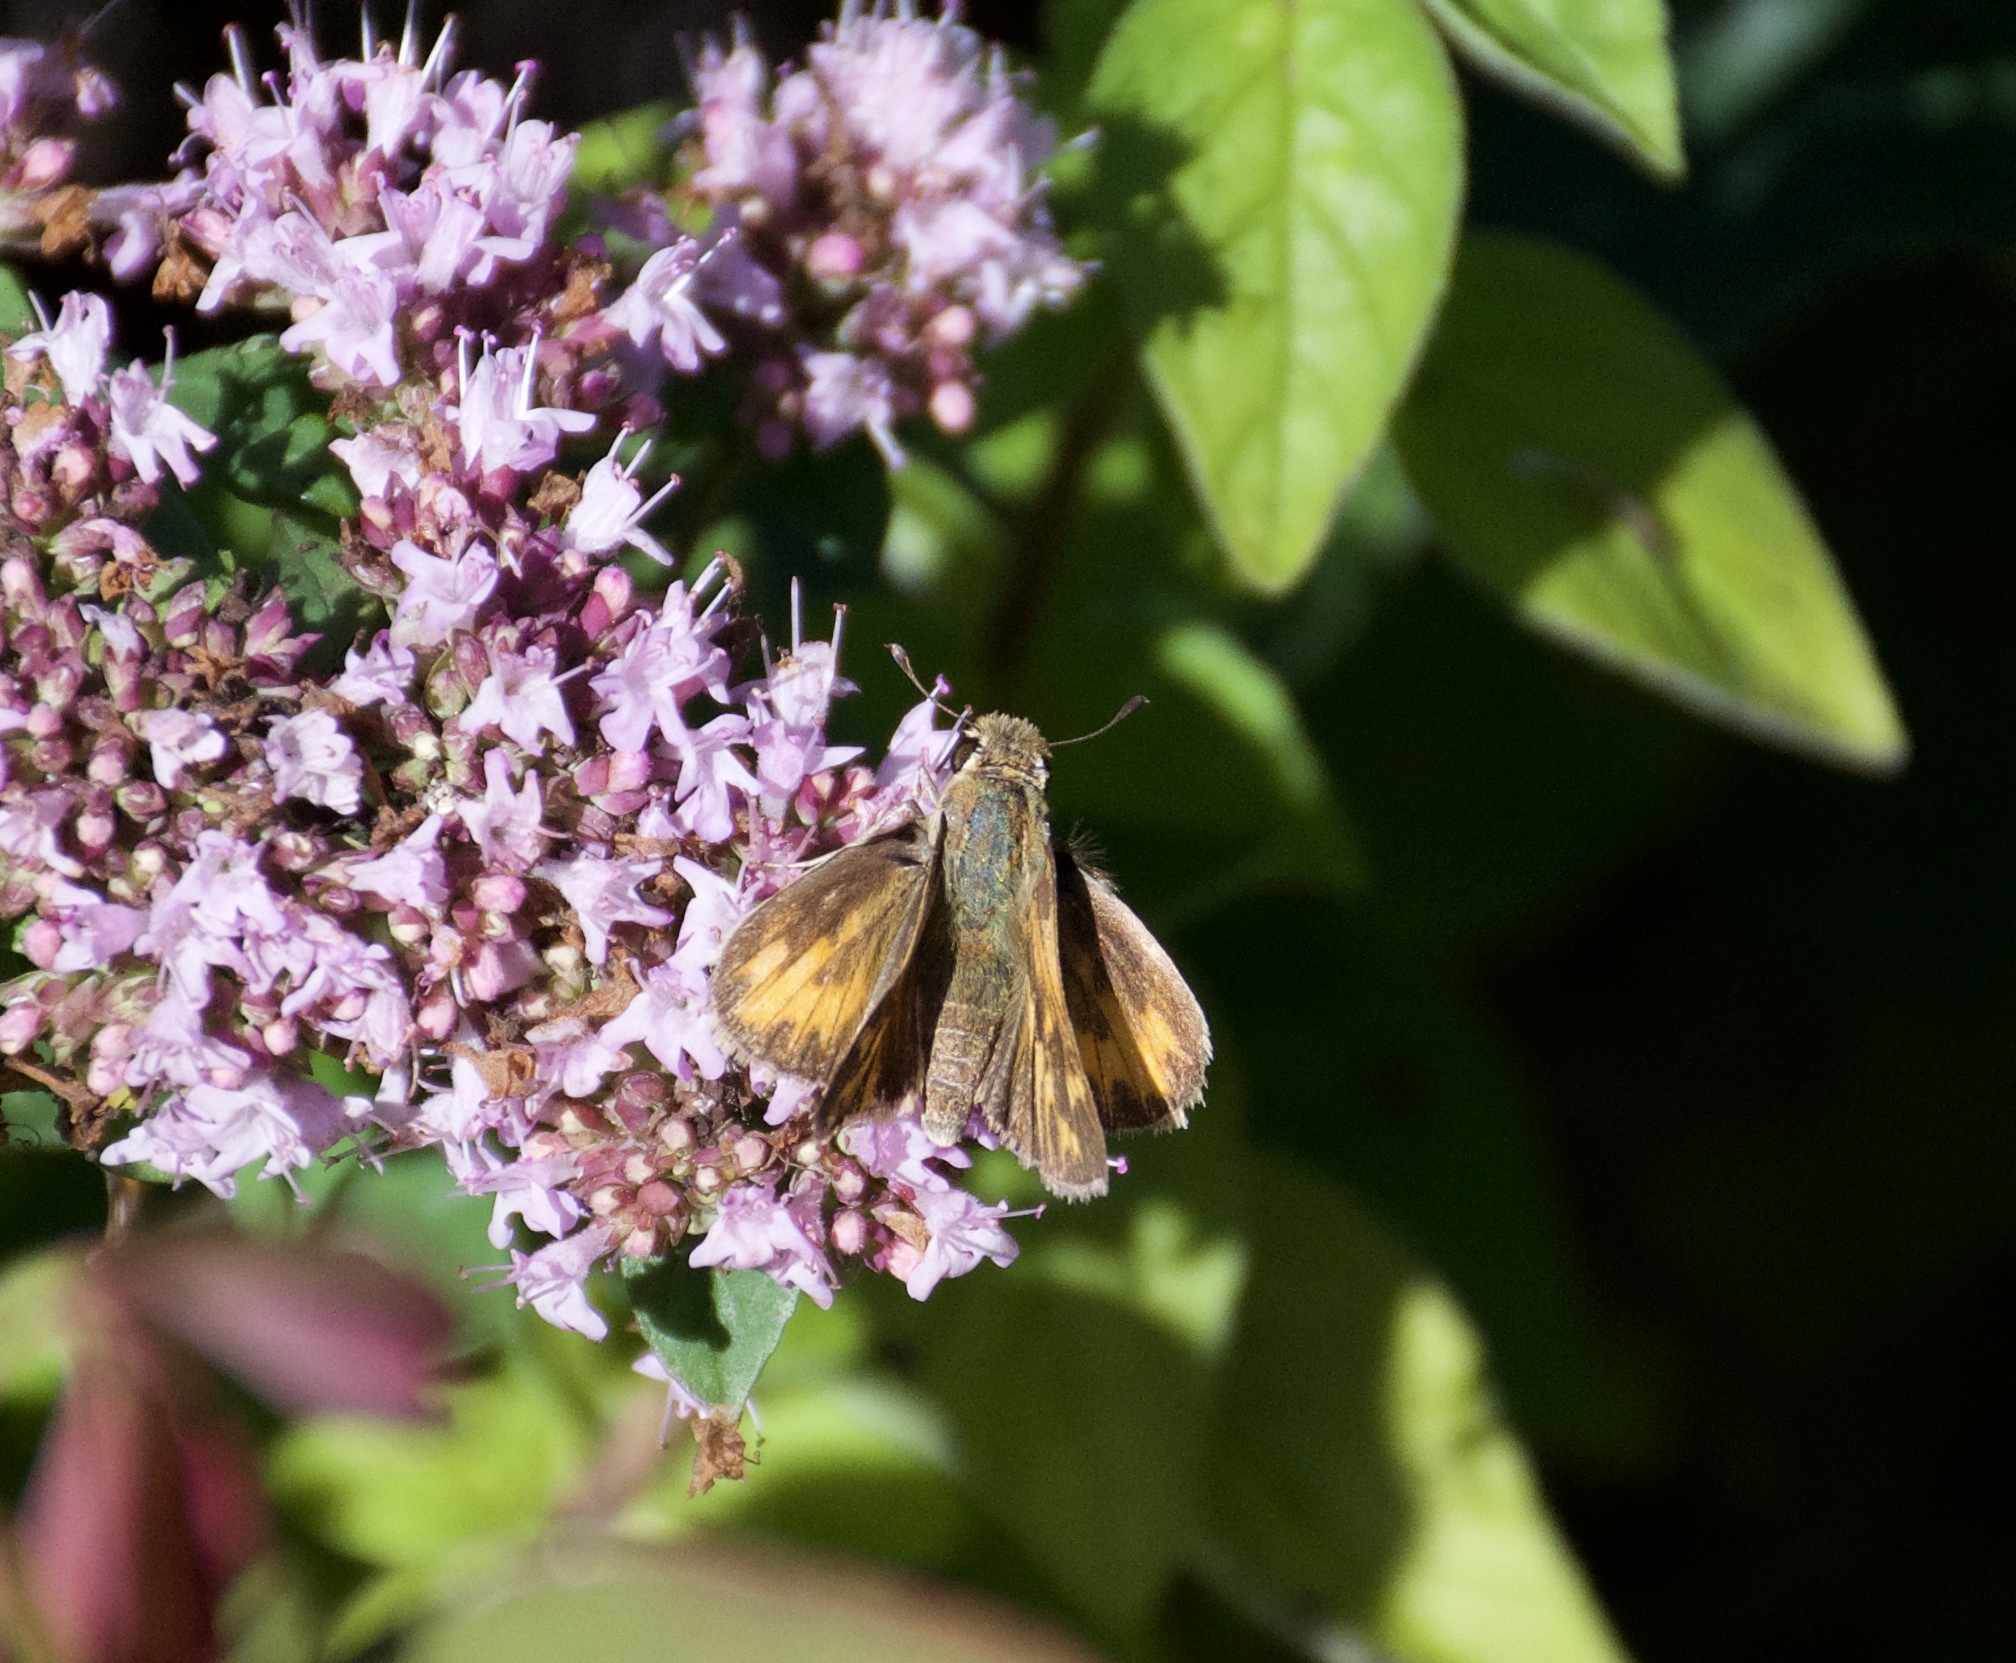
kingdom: Animalia
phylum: Arthropoda
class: Insecta
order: Lepidoptera
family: Hesperiidae
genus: Hylephila
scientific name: Hylephila phyleus
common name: Fiery skipper
